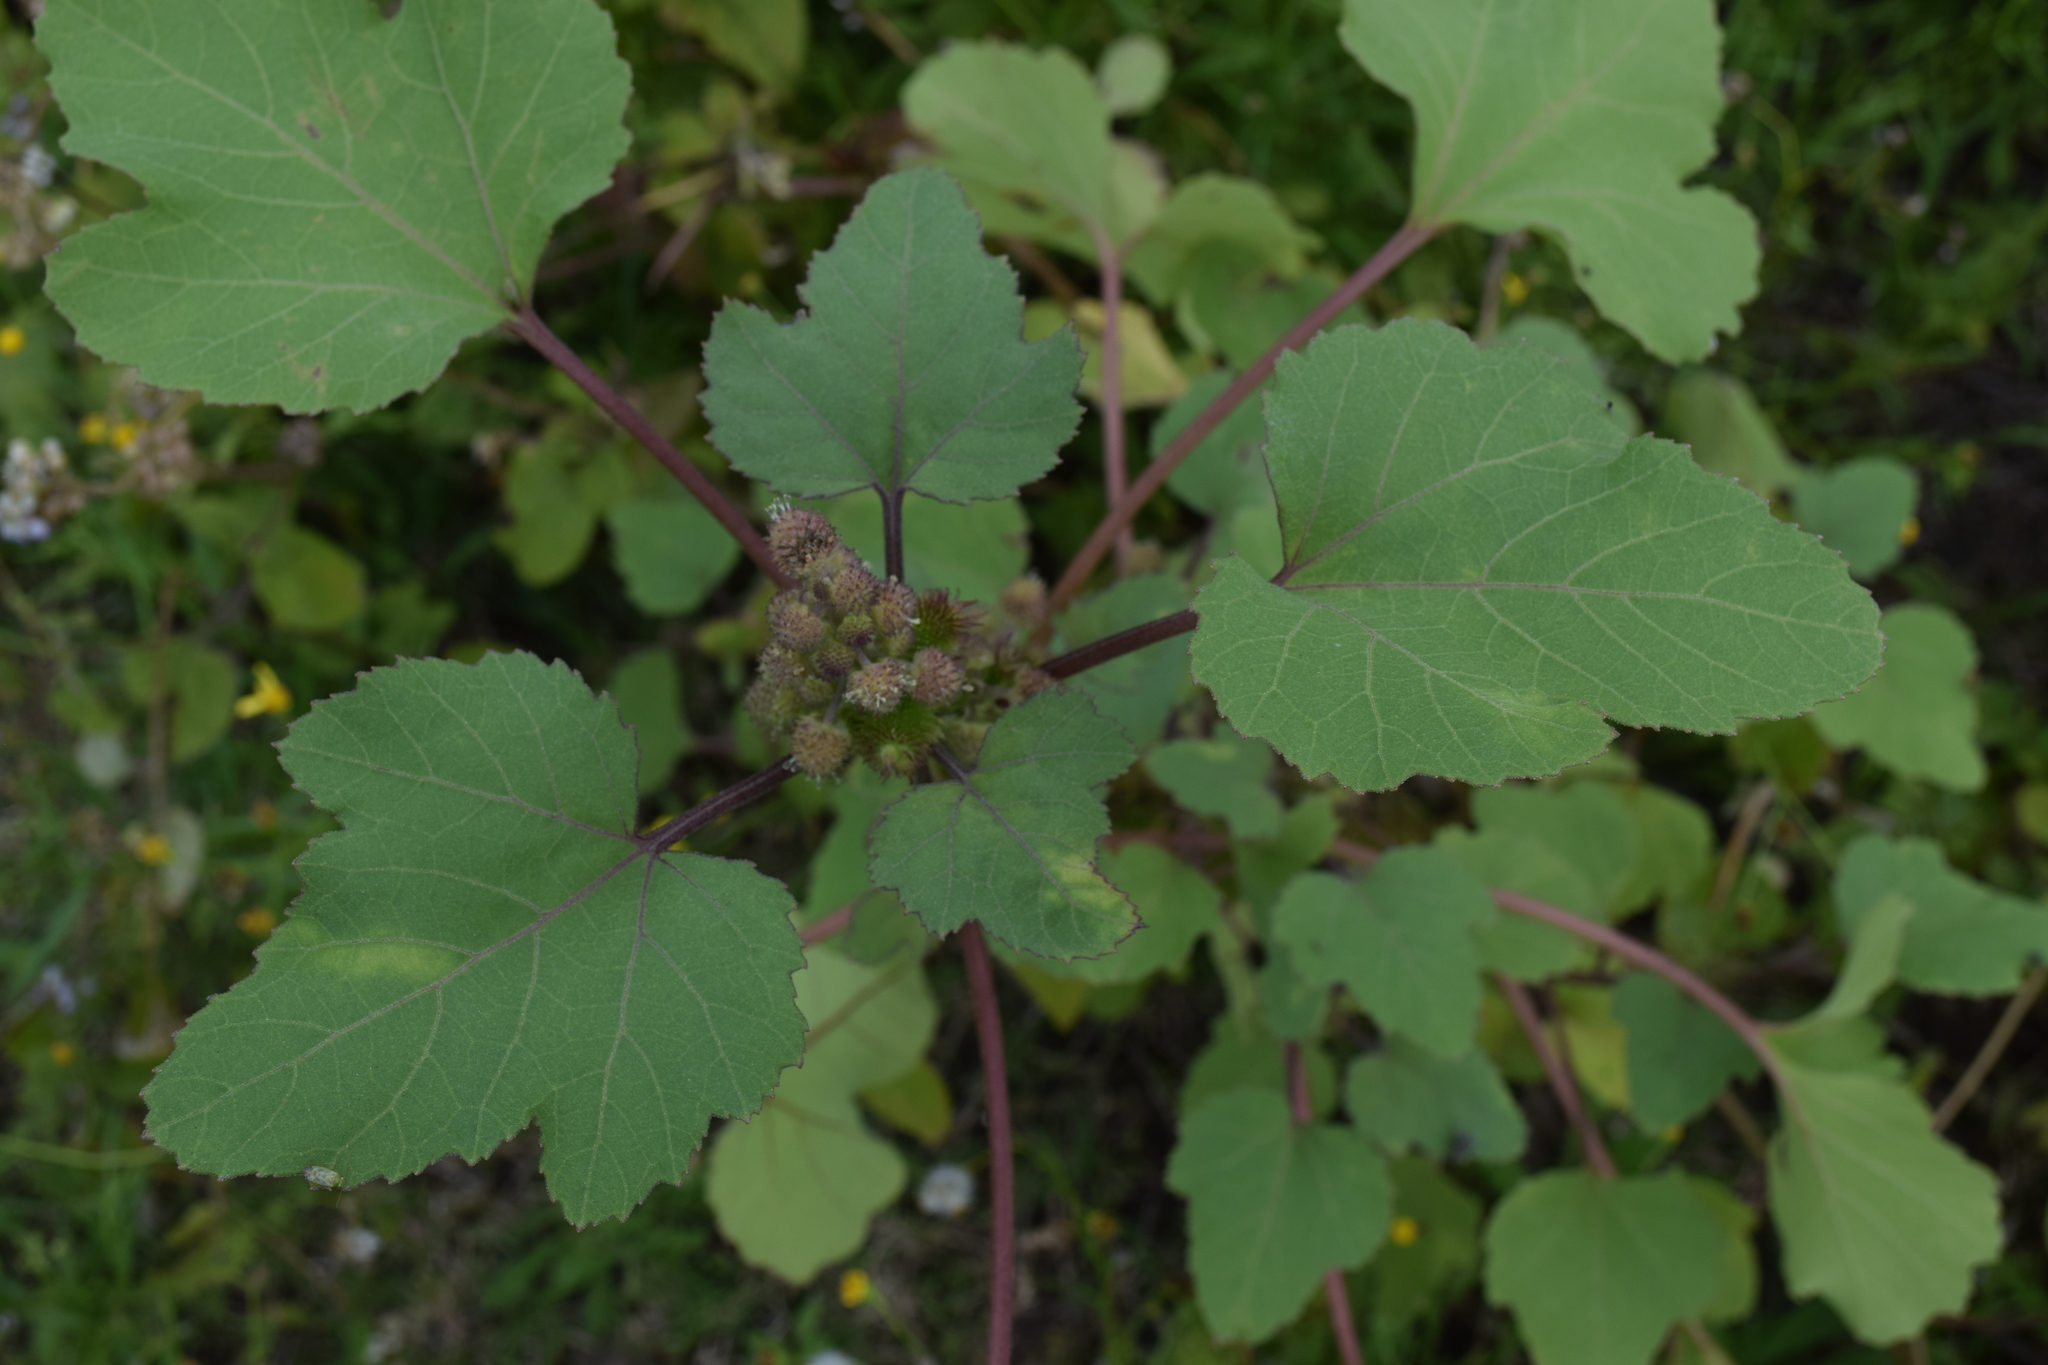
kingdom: Plantae
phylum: Tracheophyta
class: Magnoliopsida
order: Asterales
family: Asteraceae
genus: Xanthium
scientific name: Xanthium strumarium
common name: Rough cocklebur
